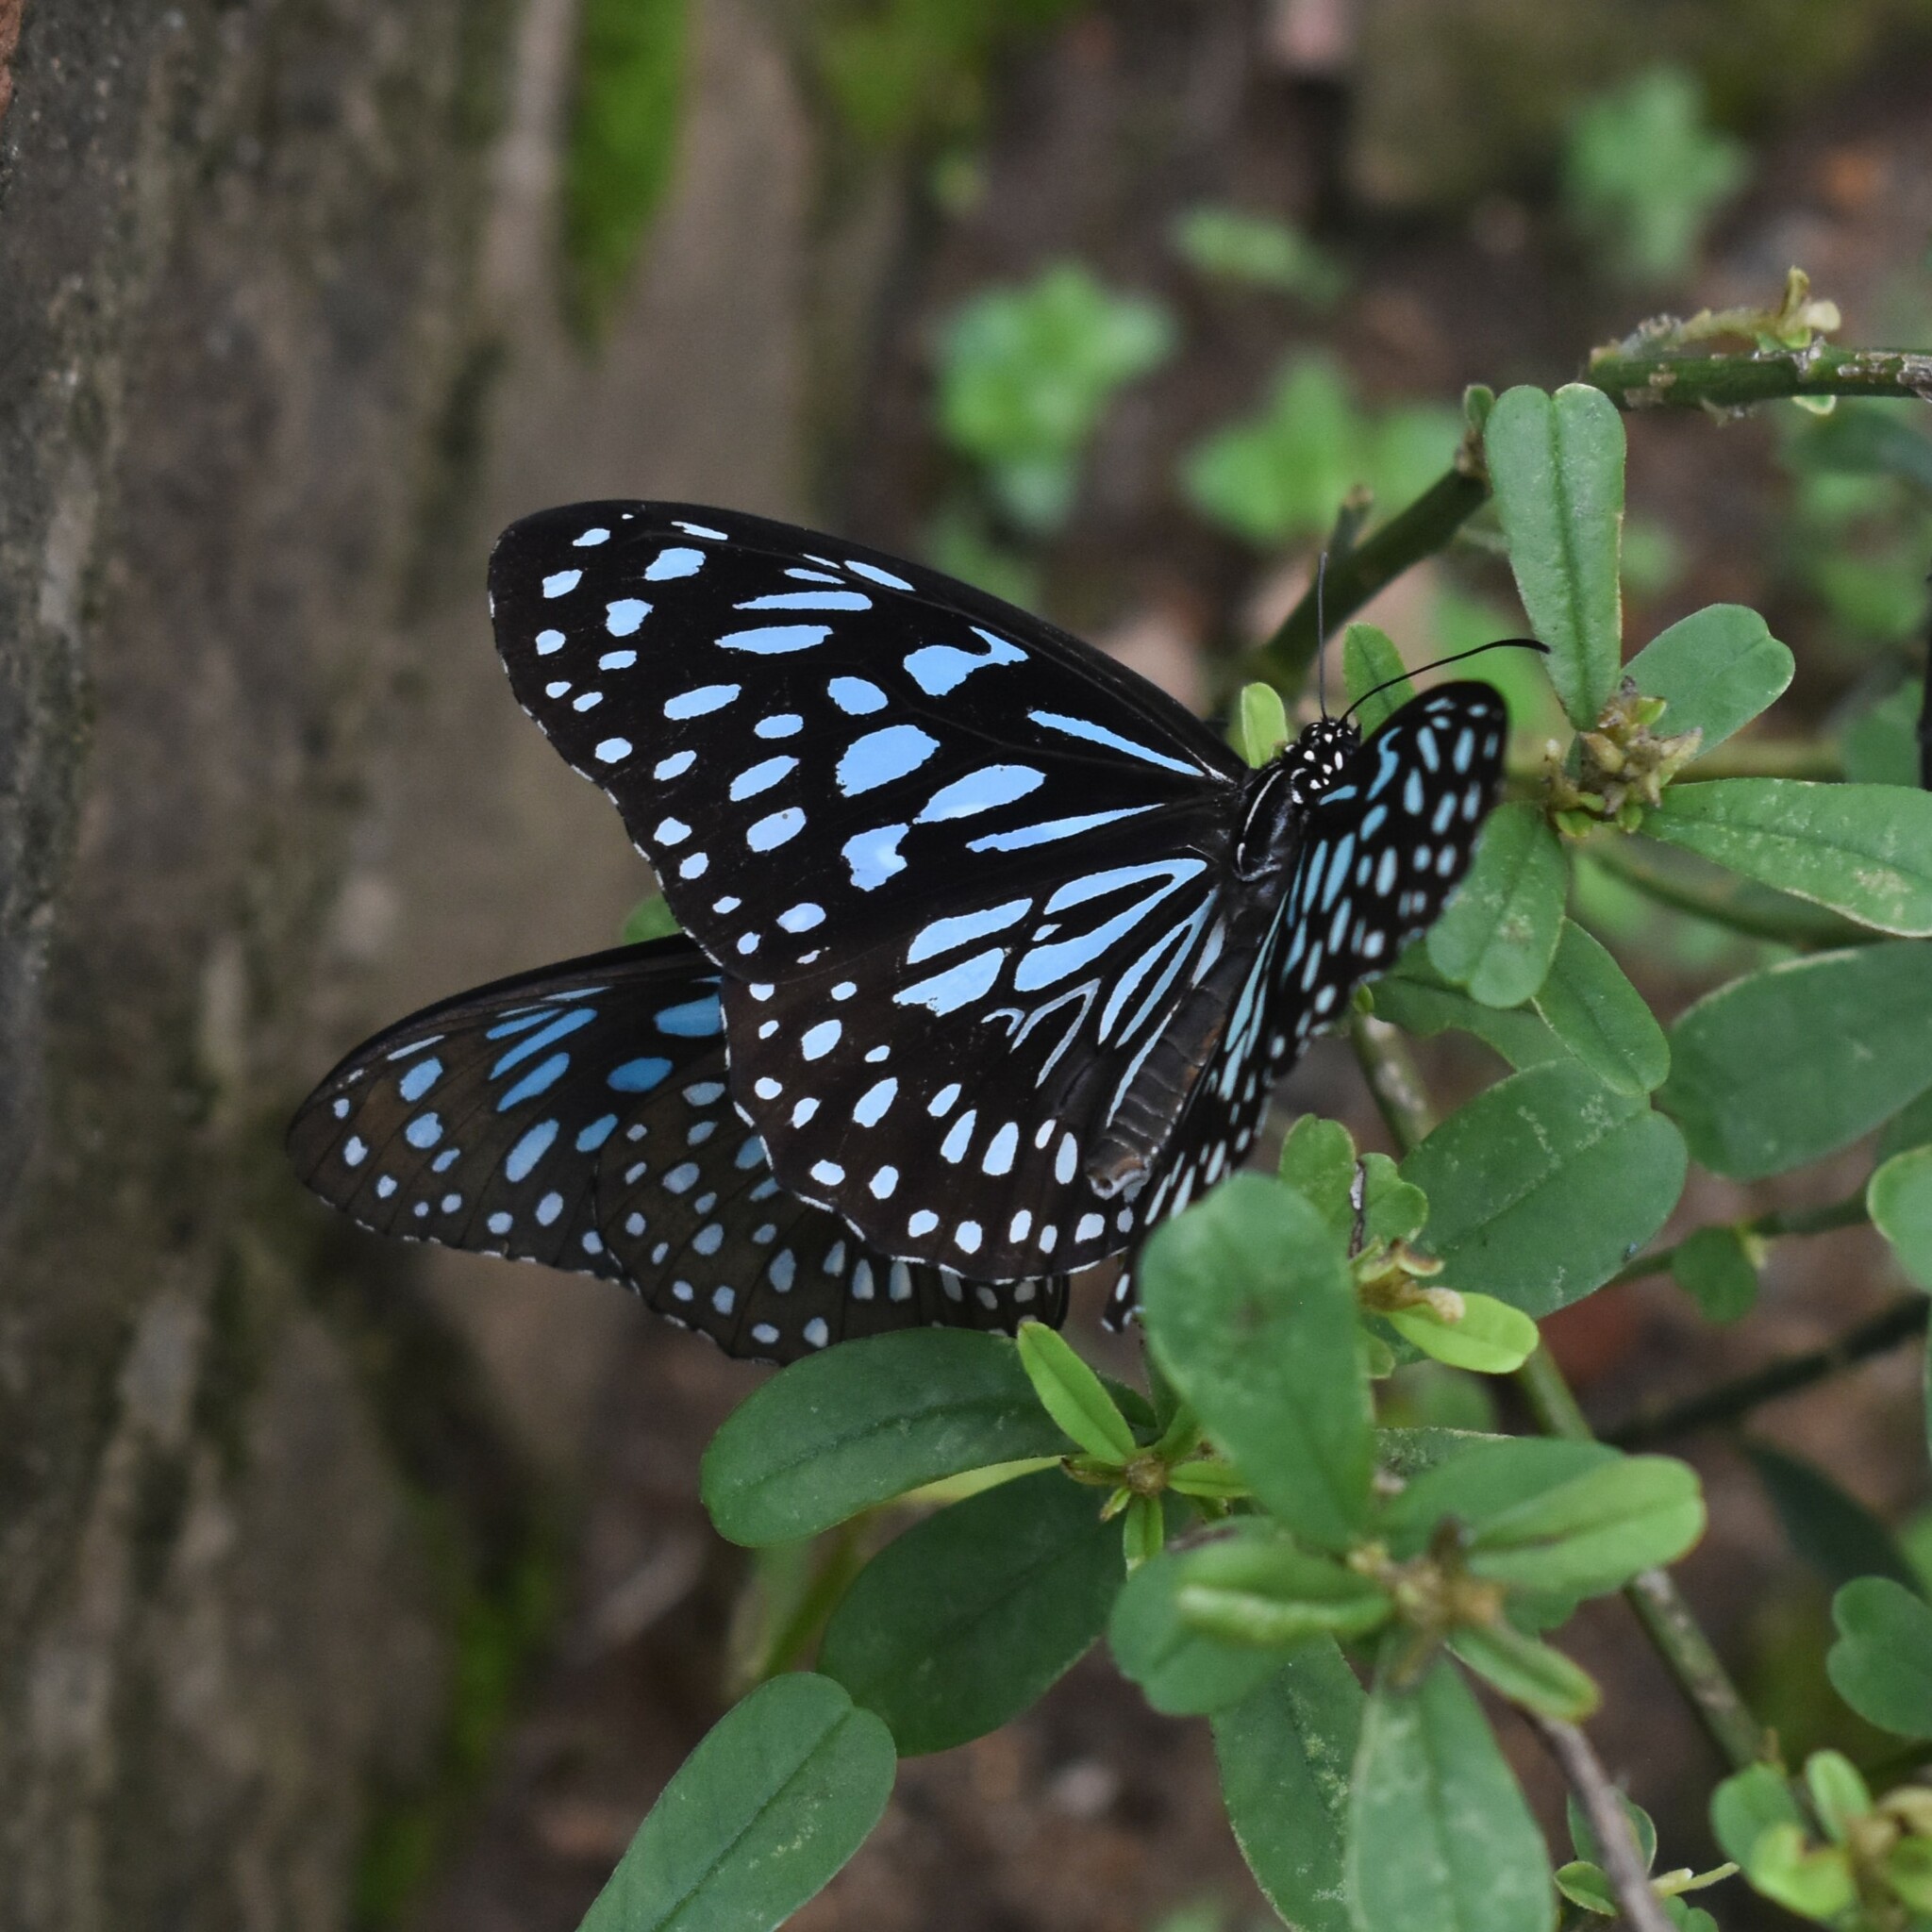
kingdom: Animalia
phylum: Arthropoda
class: Insecta
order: Lepidoptera
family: Nymphalidae
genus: Tirumala
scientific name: Tirumala septentrionis
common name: Dark blue tiger butterfly
